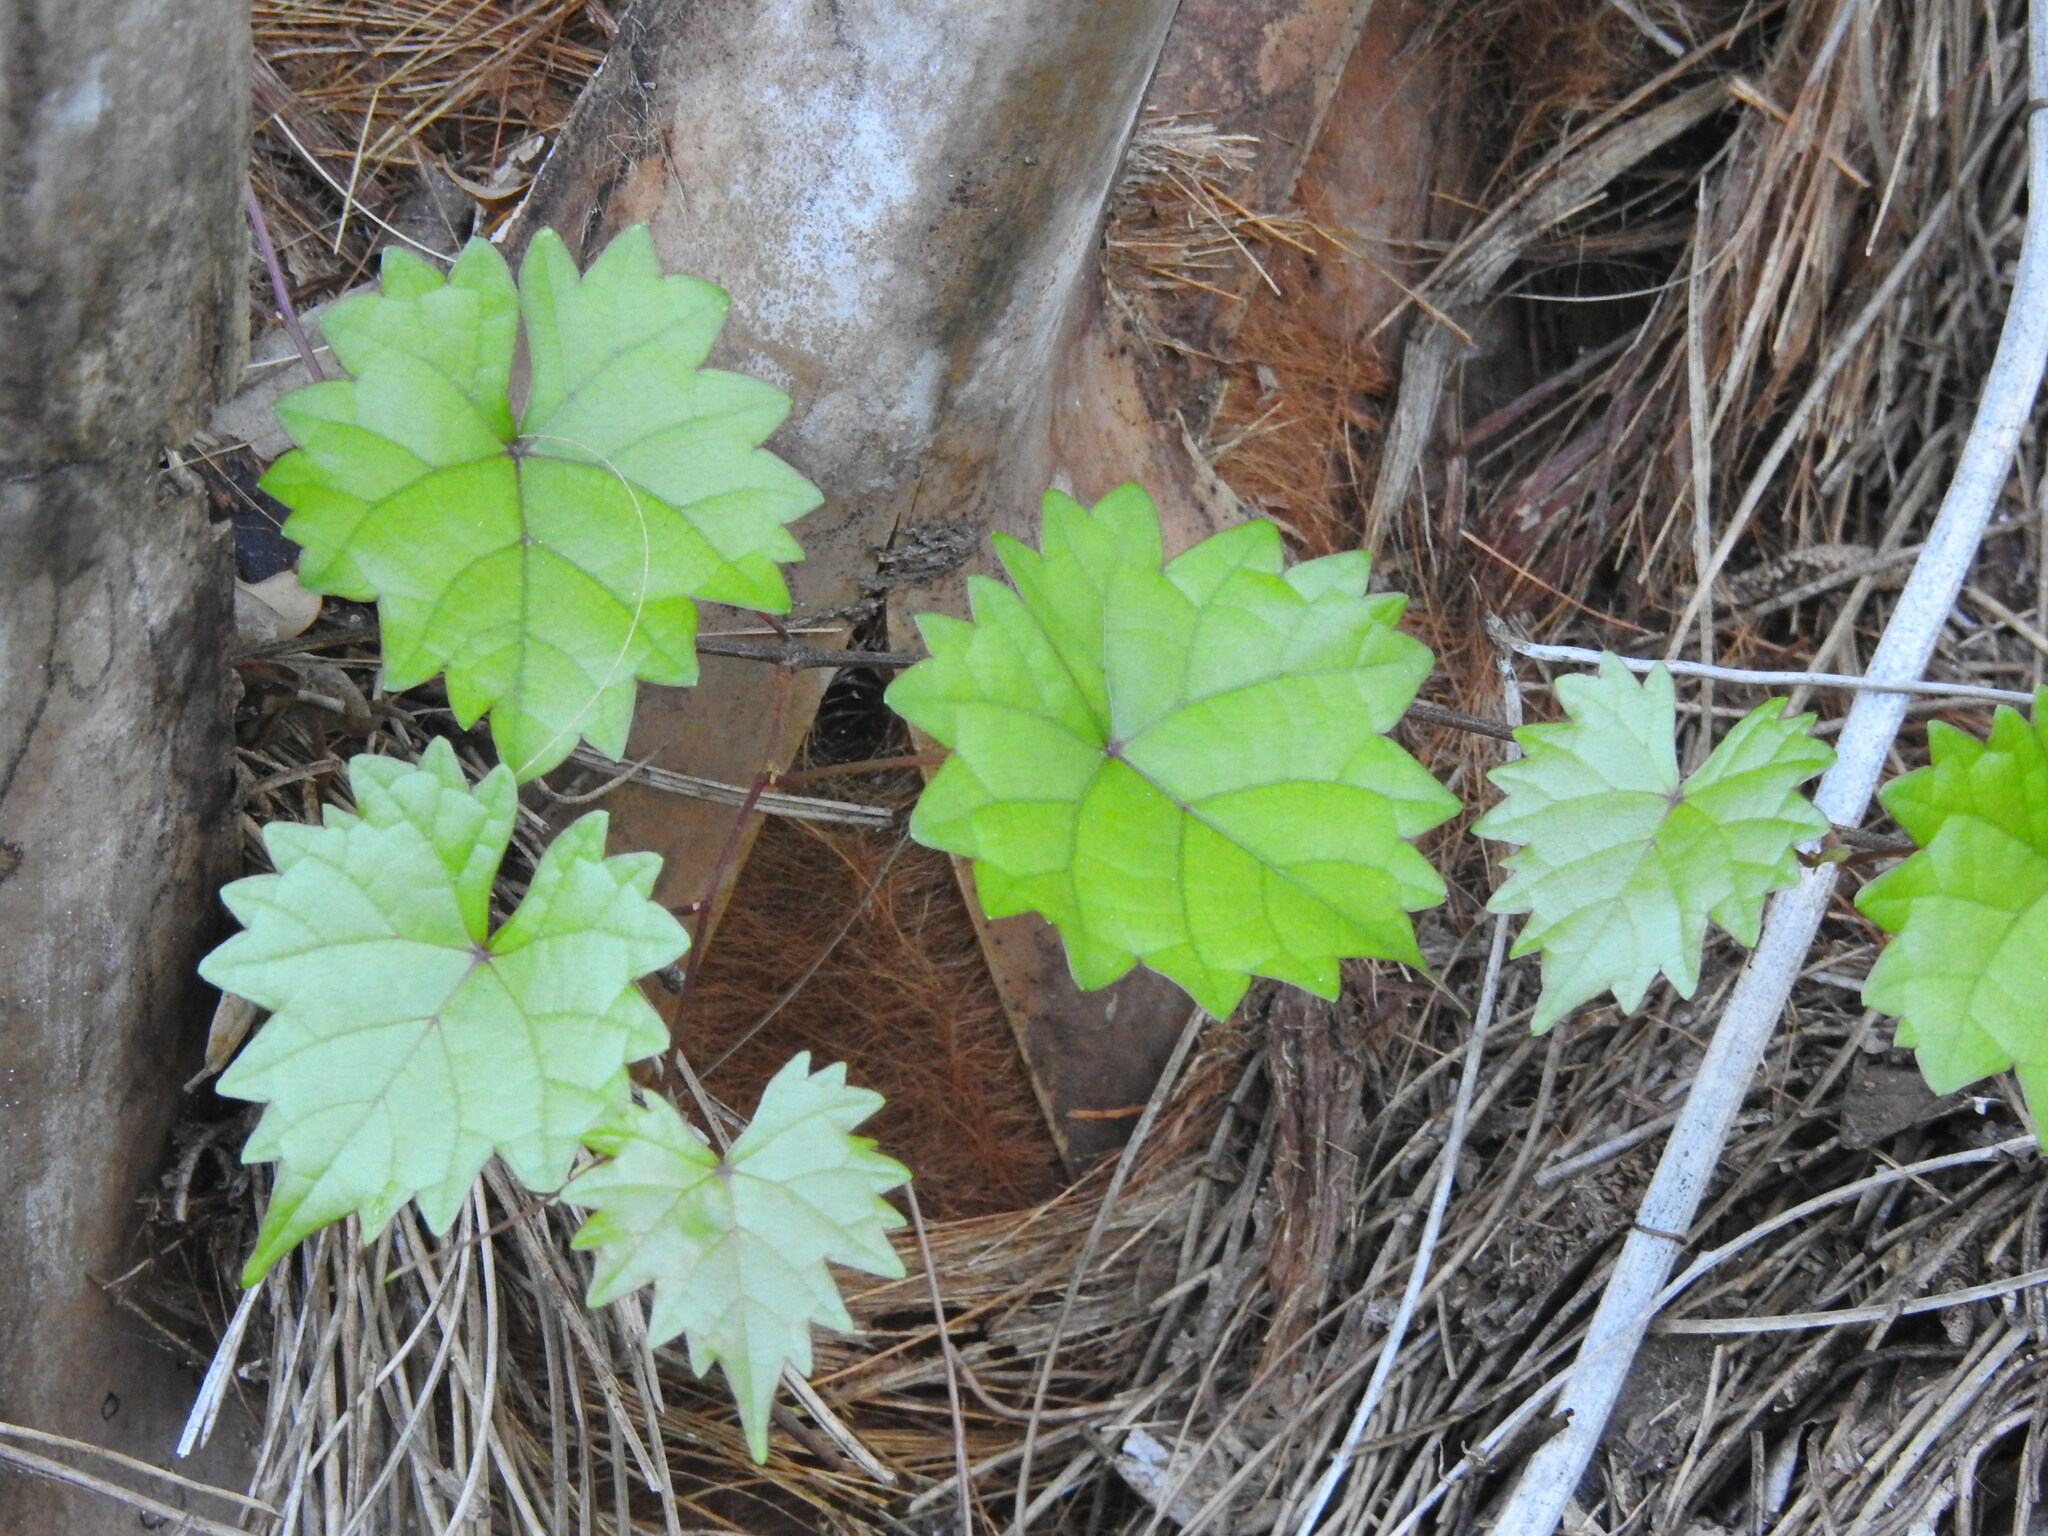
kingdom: Plantae
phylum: Tracheophyta
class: Magnoliopsida
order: Vitales
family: Vitaceae
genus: Vitis
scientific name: Vitis rotundifolia
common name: Muscadine grape
